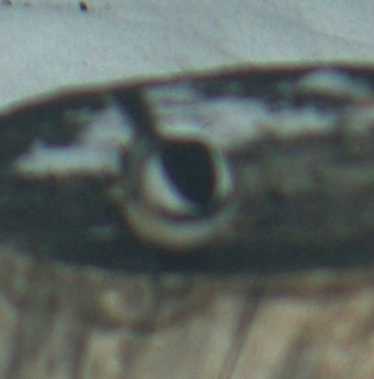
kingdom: Animalia
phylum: Chordata
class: Aves
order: Passeriformes
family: Paridae
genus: Poecile
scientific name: Poecile atricapillus
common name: Black-capped chickadee
